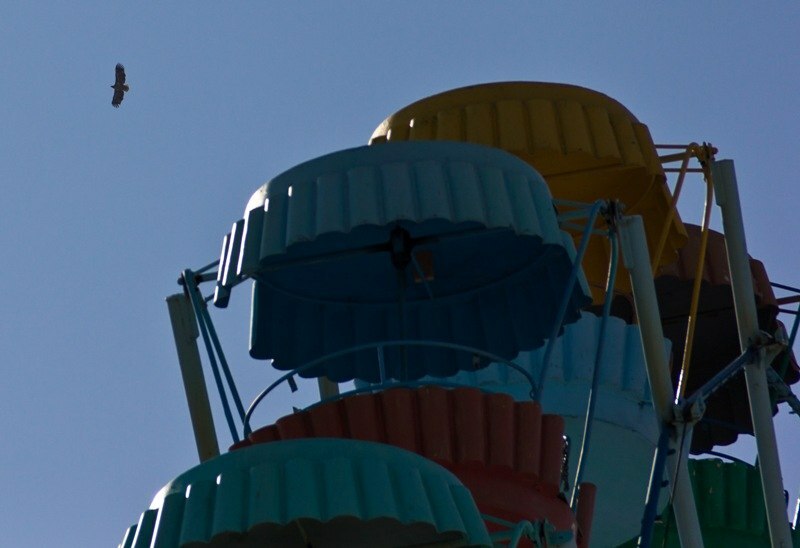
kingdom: Animalia
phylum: Chordata
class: Aves
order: Accipitriformes
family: Accipitridae
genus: Haliaeetus
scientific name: Haliaeetus albicilla
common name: White-tailed eagle
